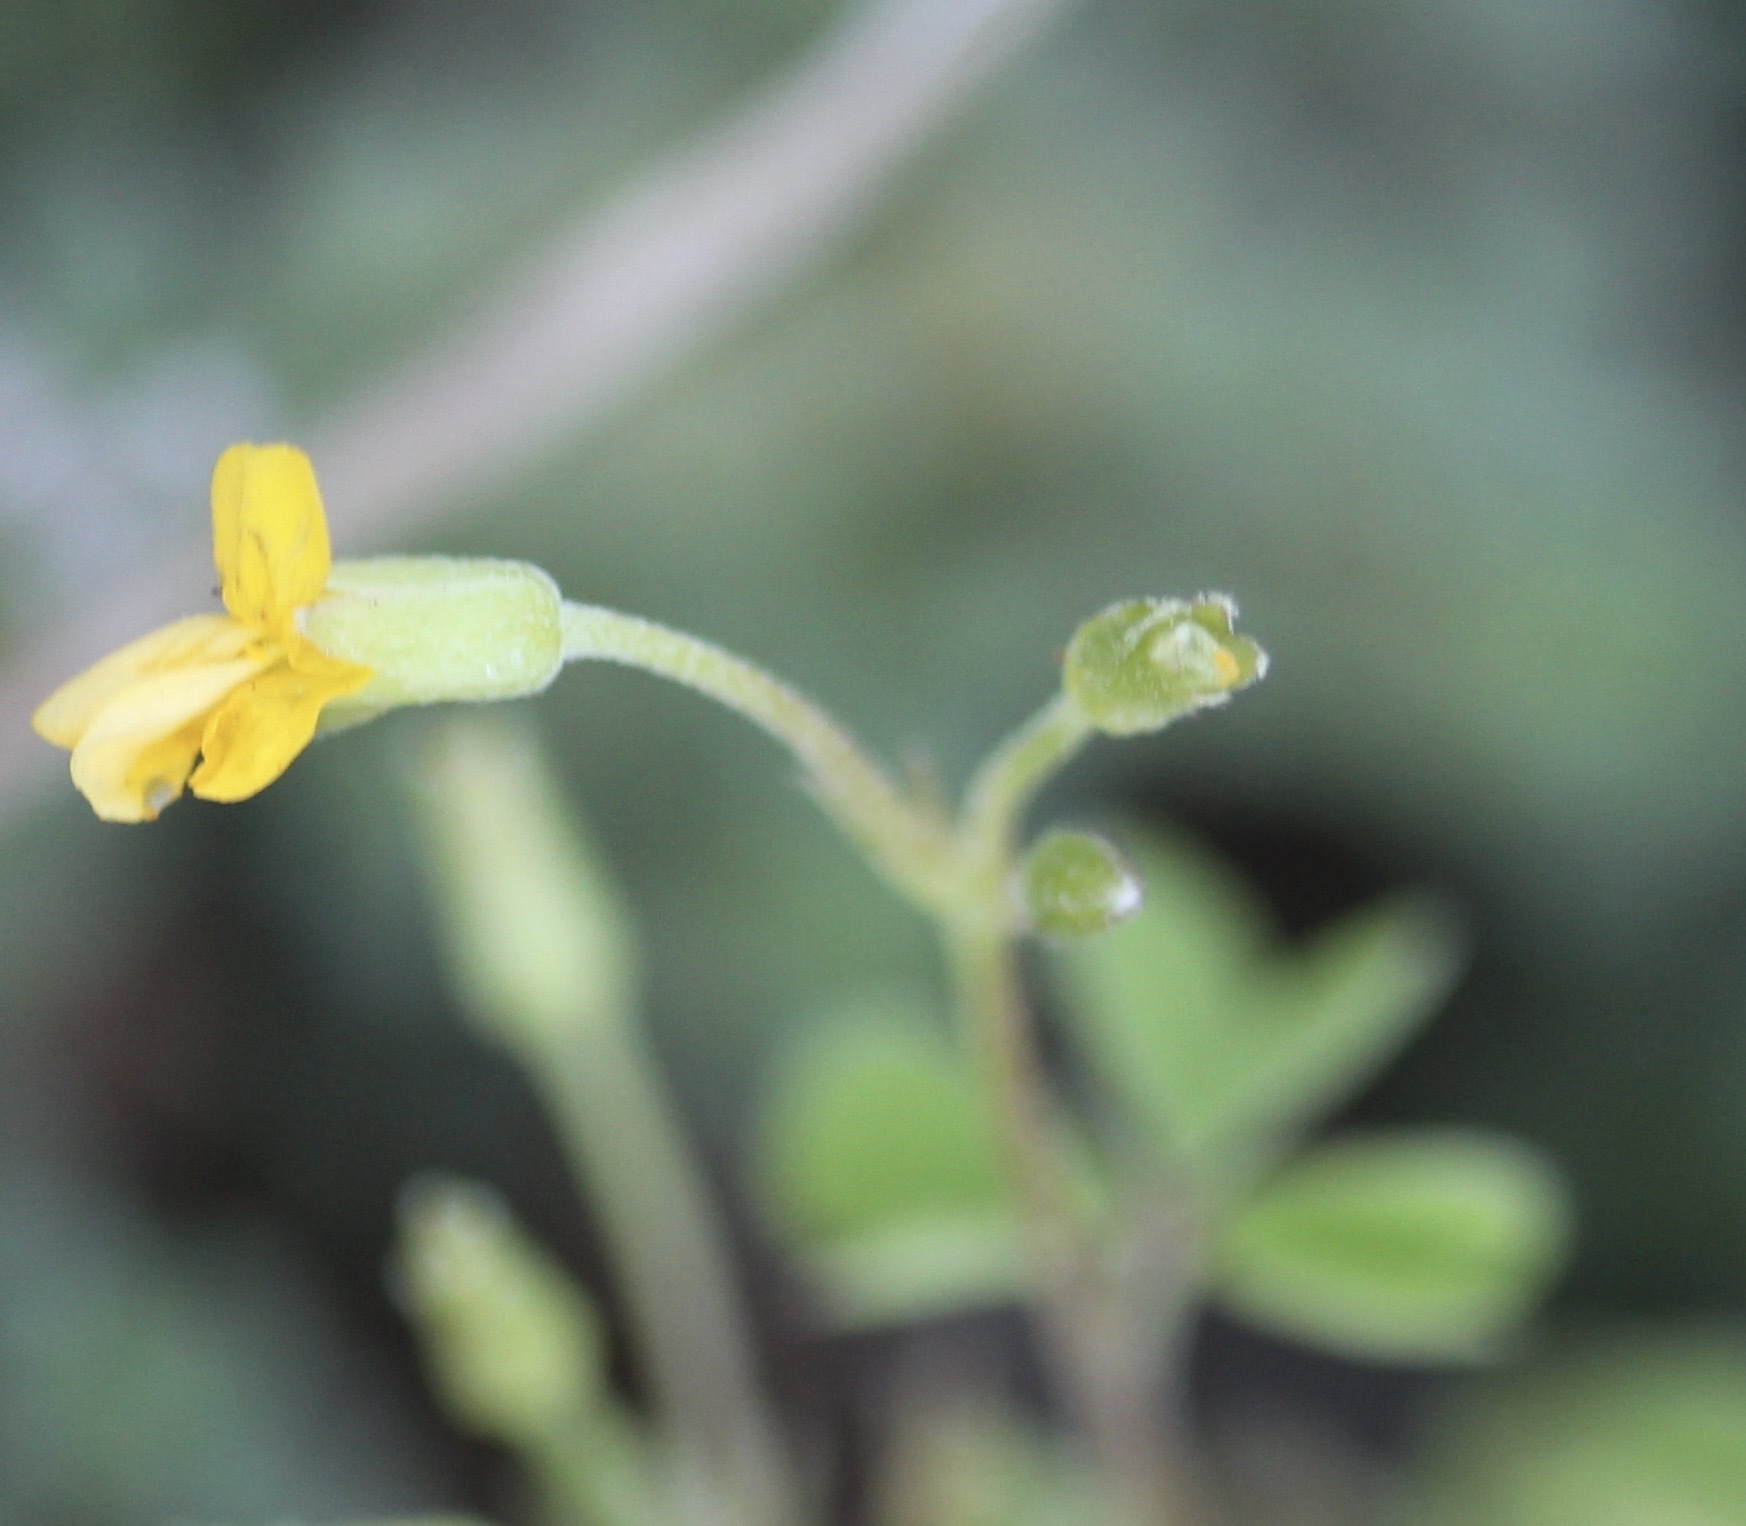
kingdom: Plantae
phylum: Tracheophyta
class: Magnoliopsida
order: Oxalidales
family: Oxalidaceae
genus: Oxalis
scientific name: Oxalis corniculata
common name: Procumbent yellow-sorrel
